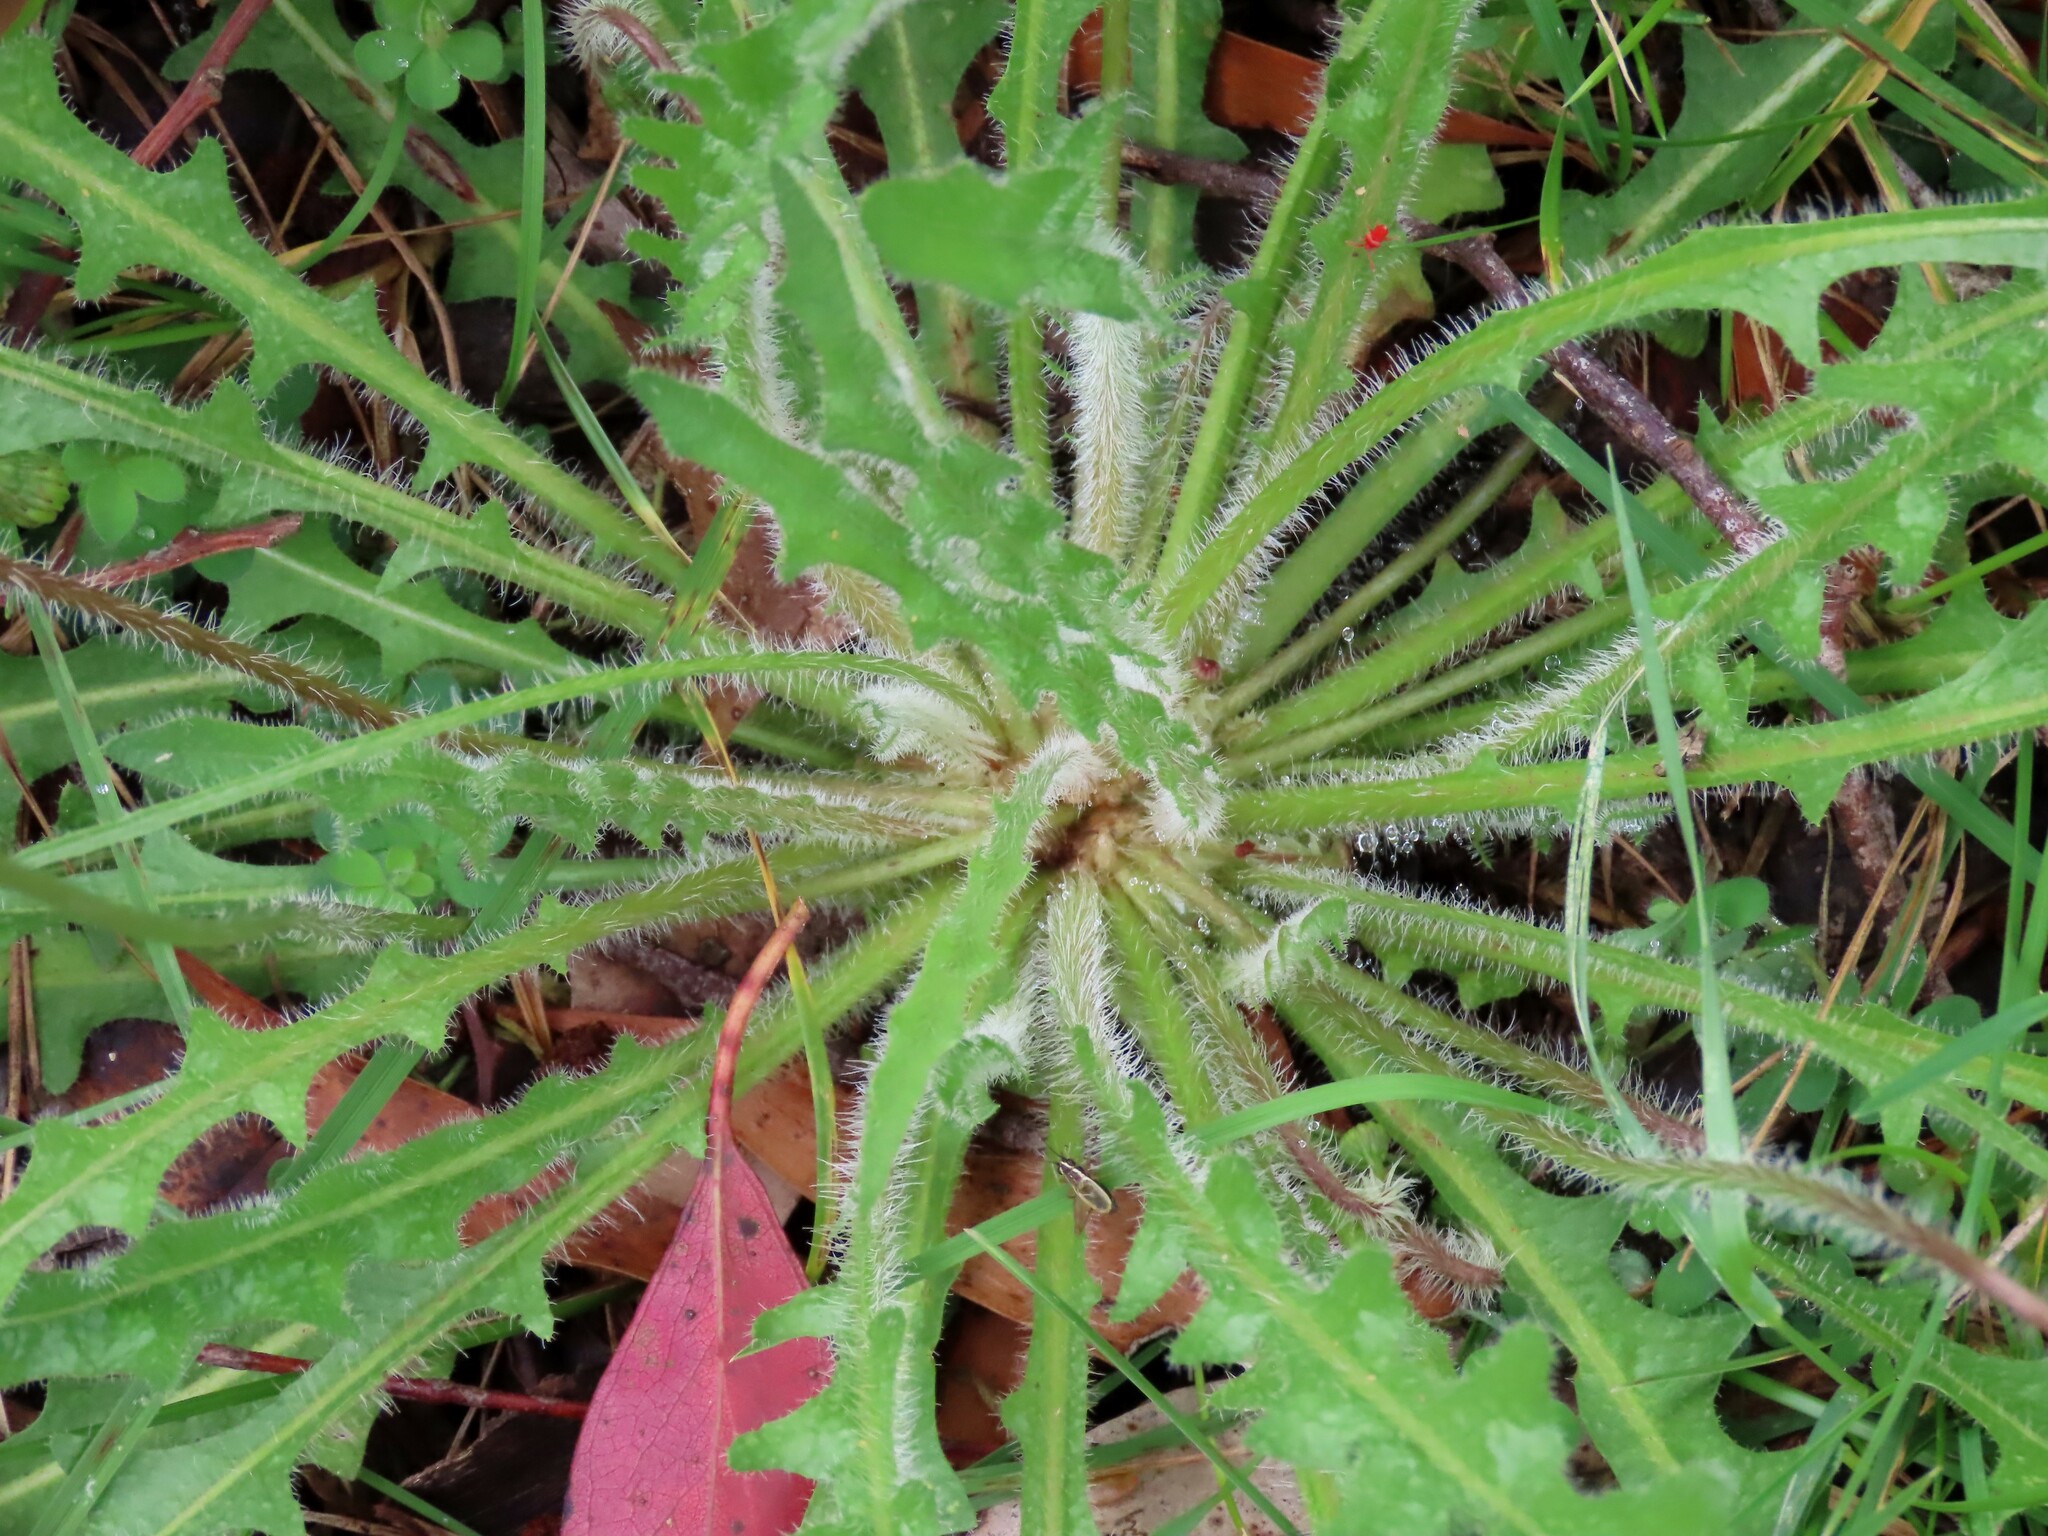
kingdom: Plantae
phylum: Tracheophyta
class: Magnoliopsida
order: Asterales
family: Asteraceae
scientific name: Asteraceae
